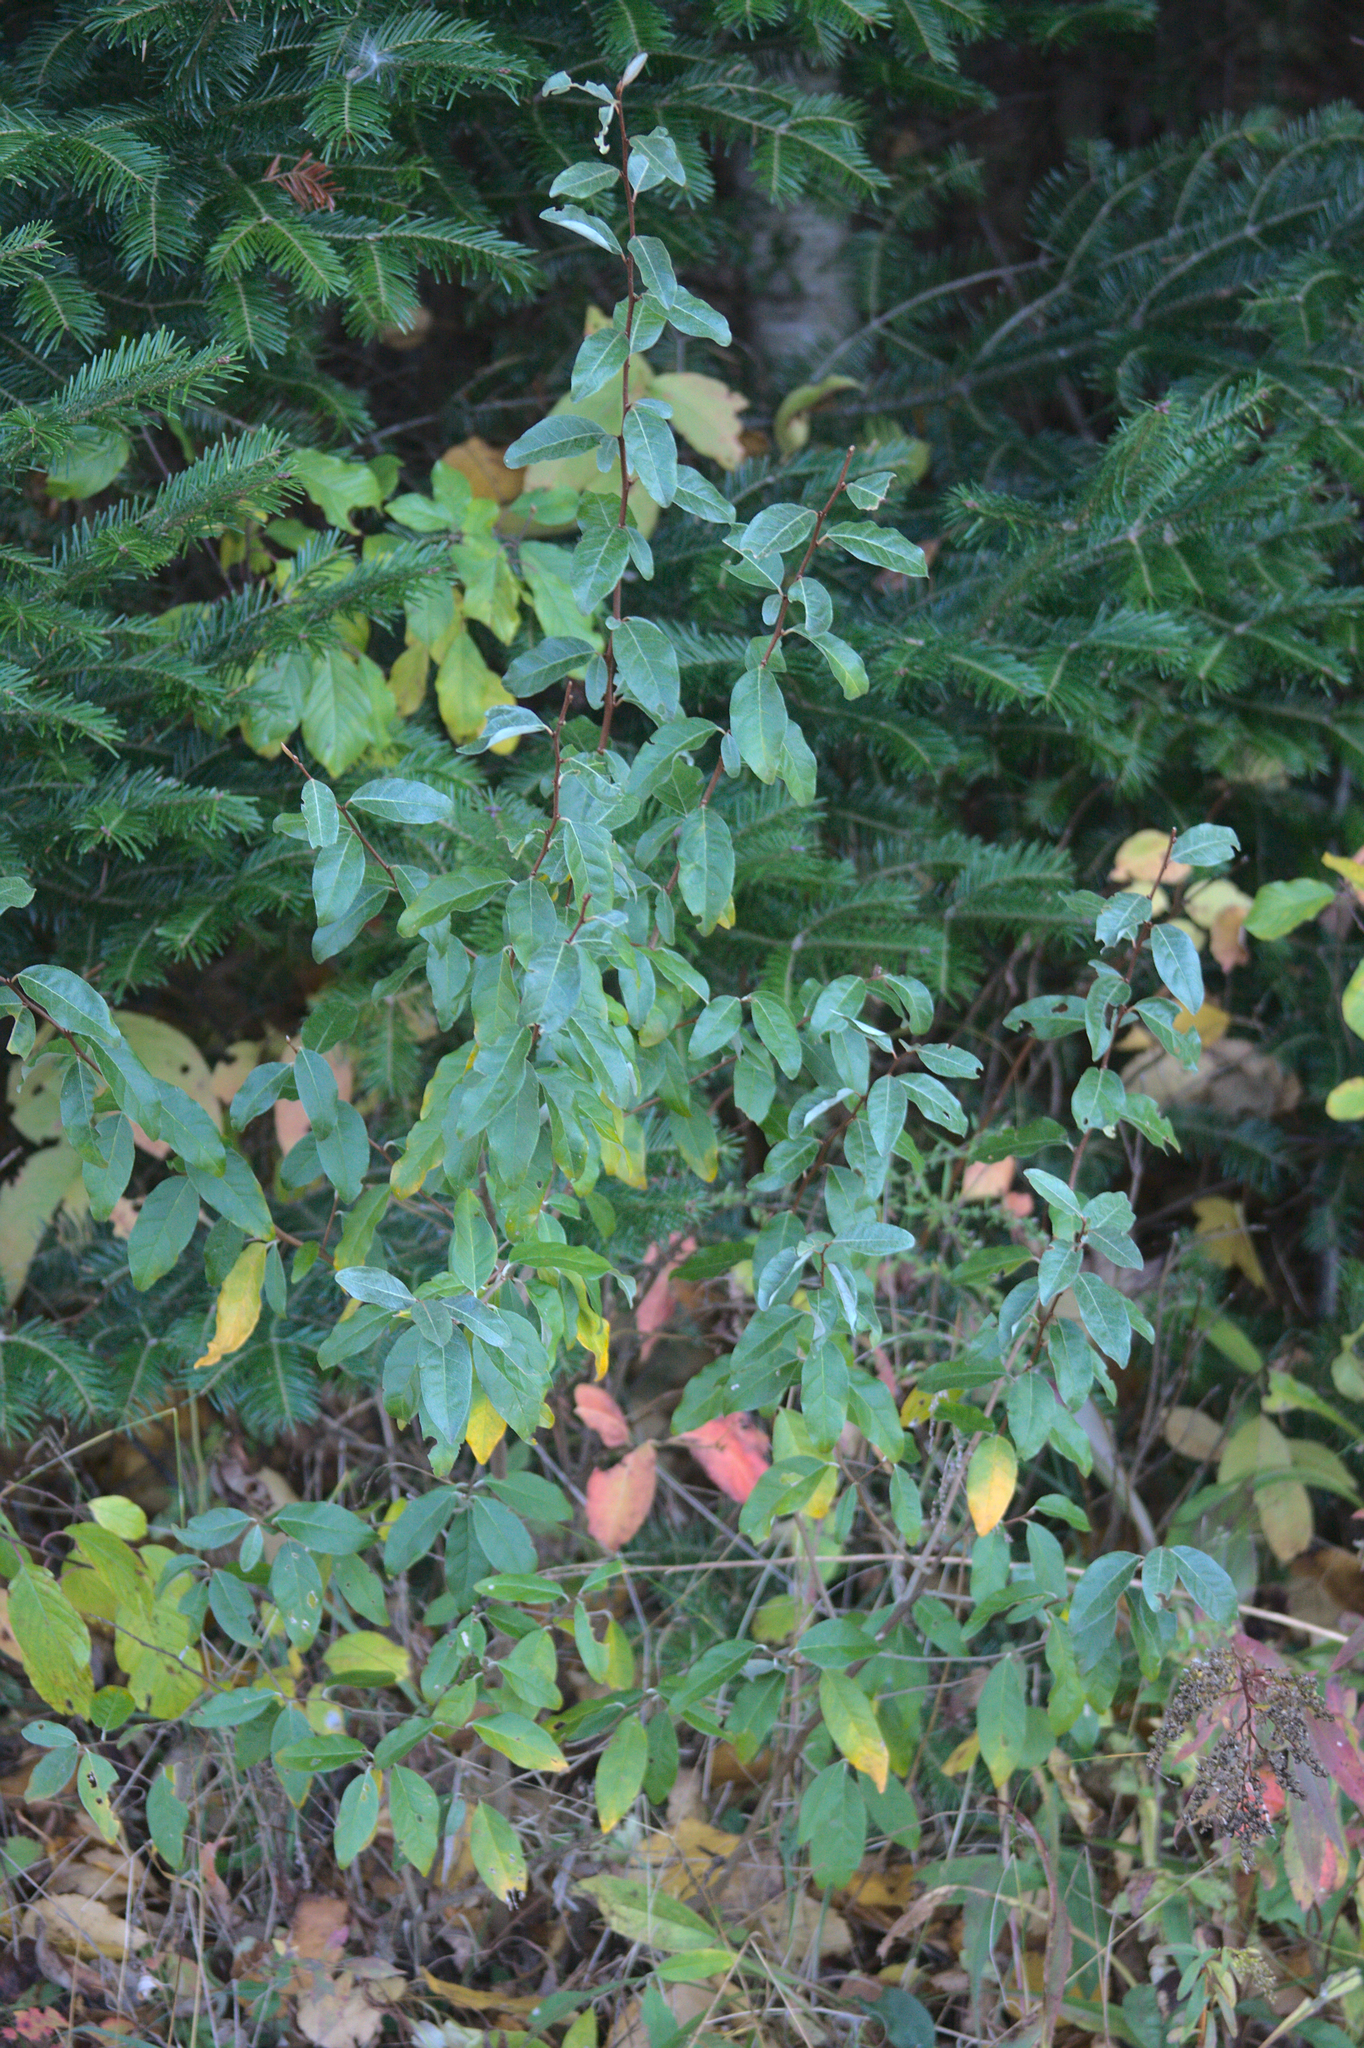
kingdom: Plantae
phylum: Tracheophyta
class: Magnoliopsida
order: Rosales
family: Elaeagnaceae
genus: Elaeagnus
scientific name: Elaeagnus umbellata
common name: Autumn olive
